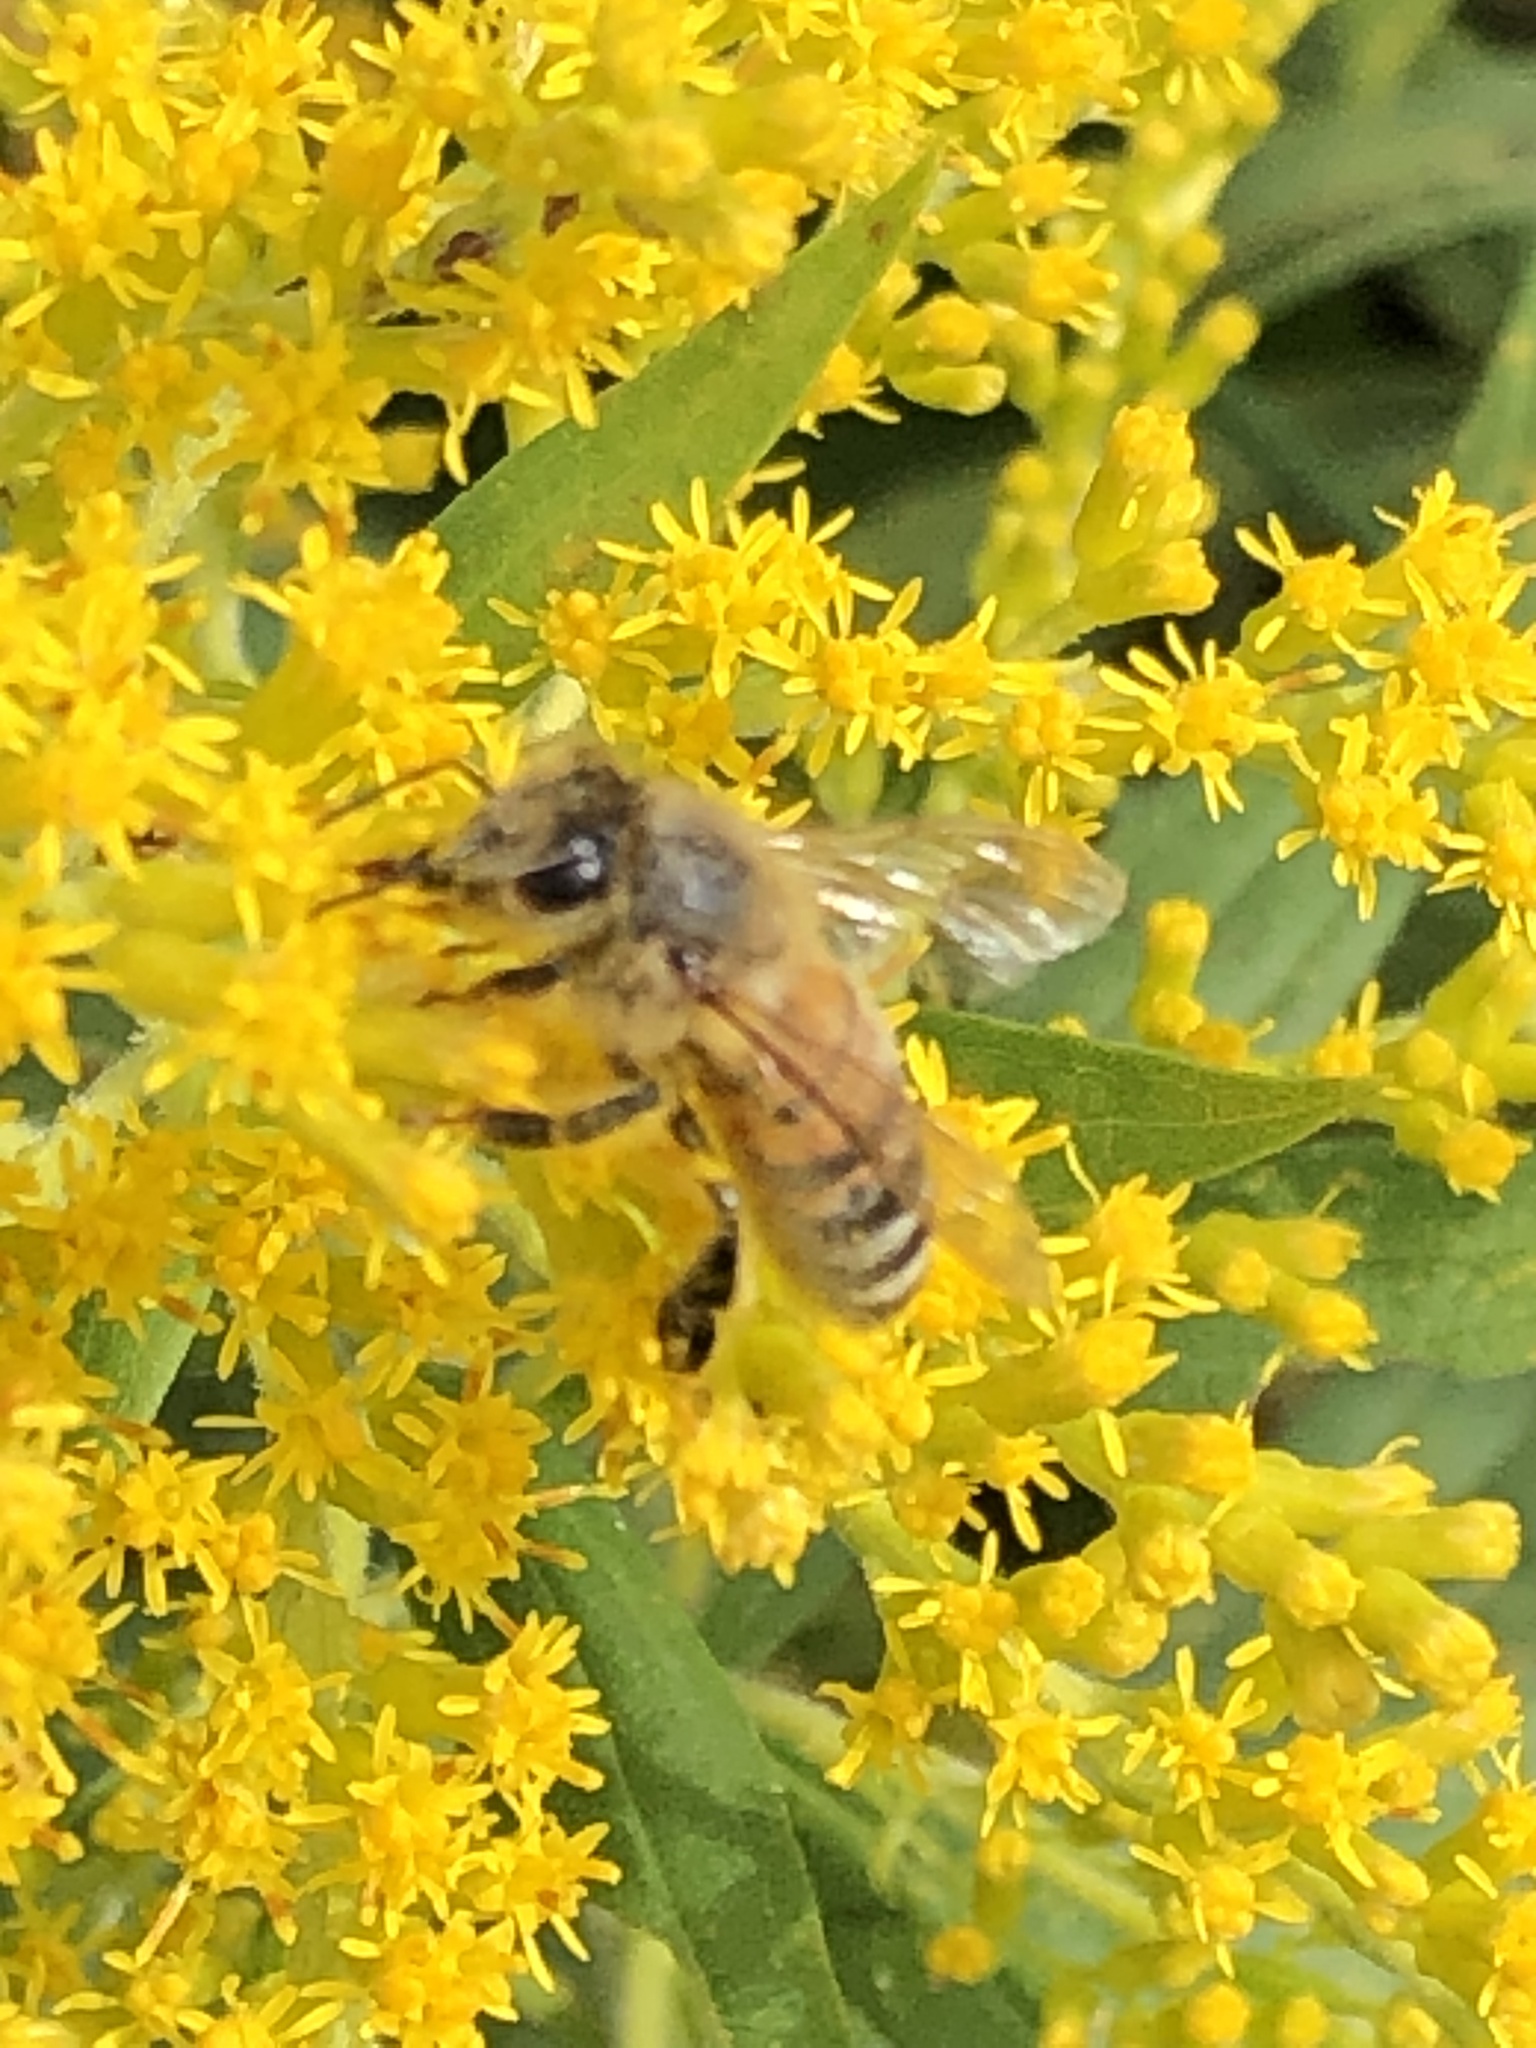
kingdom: Animalia
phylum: Arthropoda
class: Insecta
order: Hymenoptera
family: Apidae
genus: Apis
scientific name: Apis mellifera
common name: Honey bee
